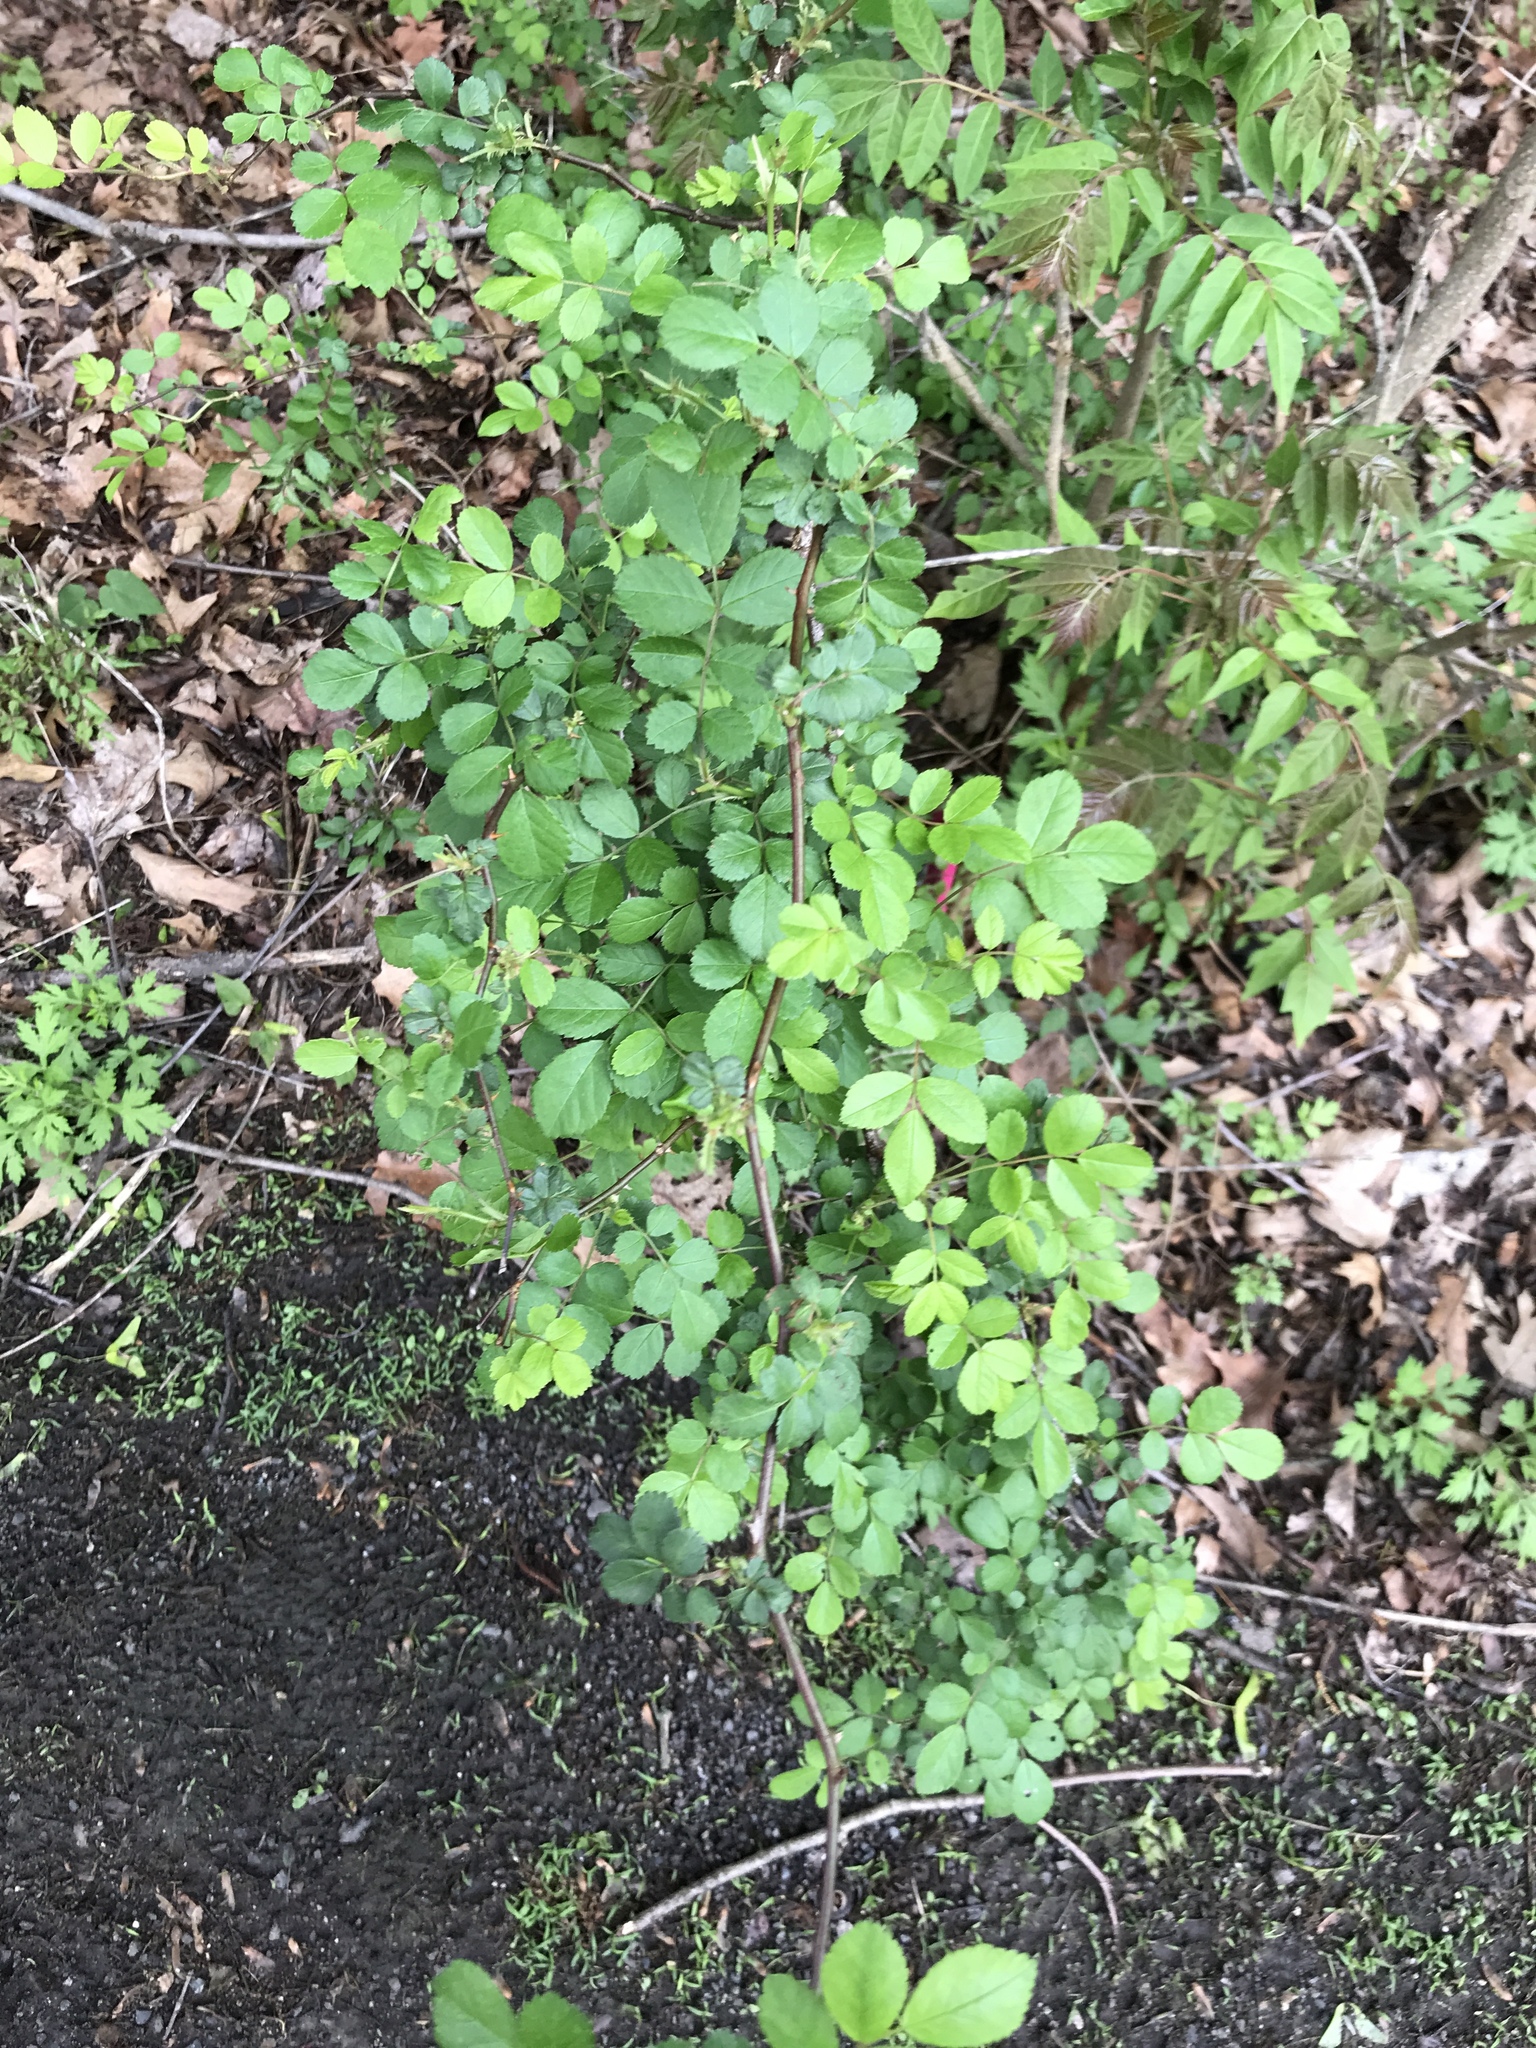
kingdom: Plantae
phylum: Tracheophyta
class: Magnoliopsida
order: Rosales
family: Rosaceae
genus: Rosa
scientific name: Rosa multiflora
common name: Multiflora rose
